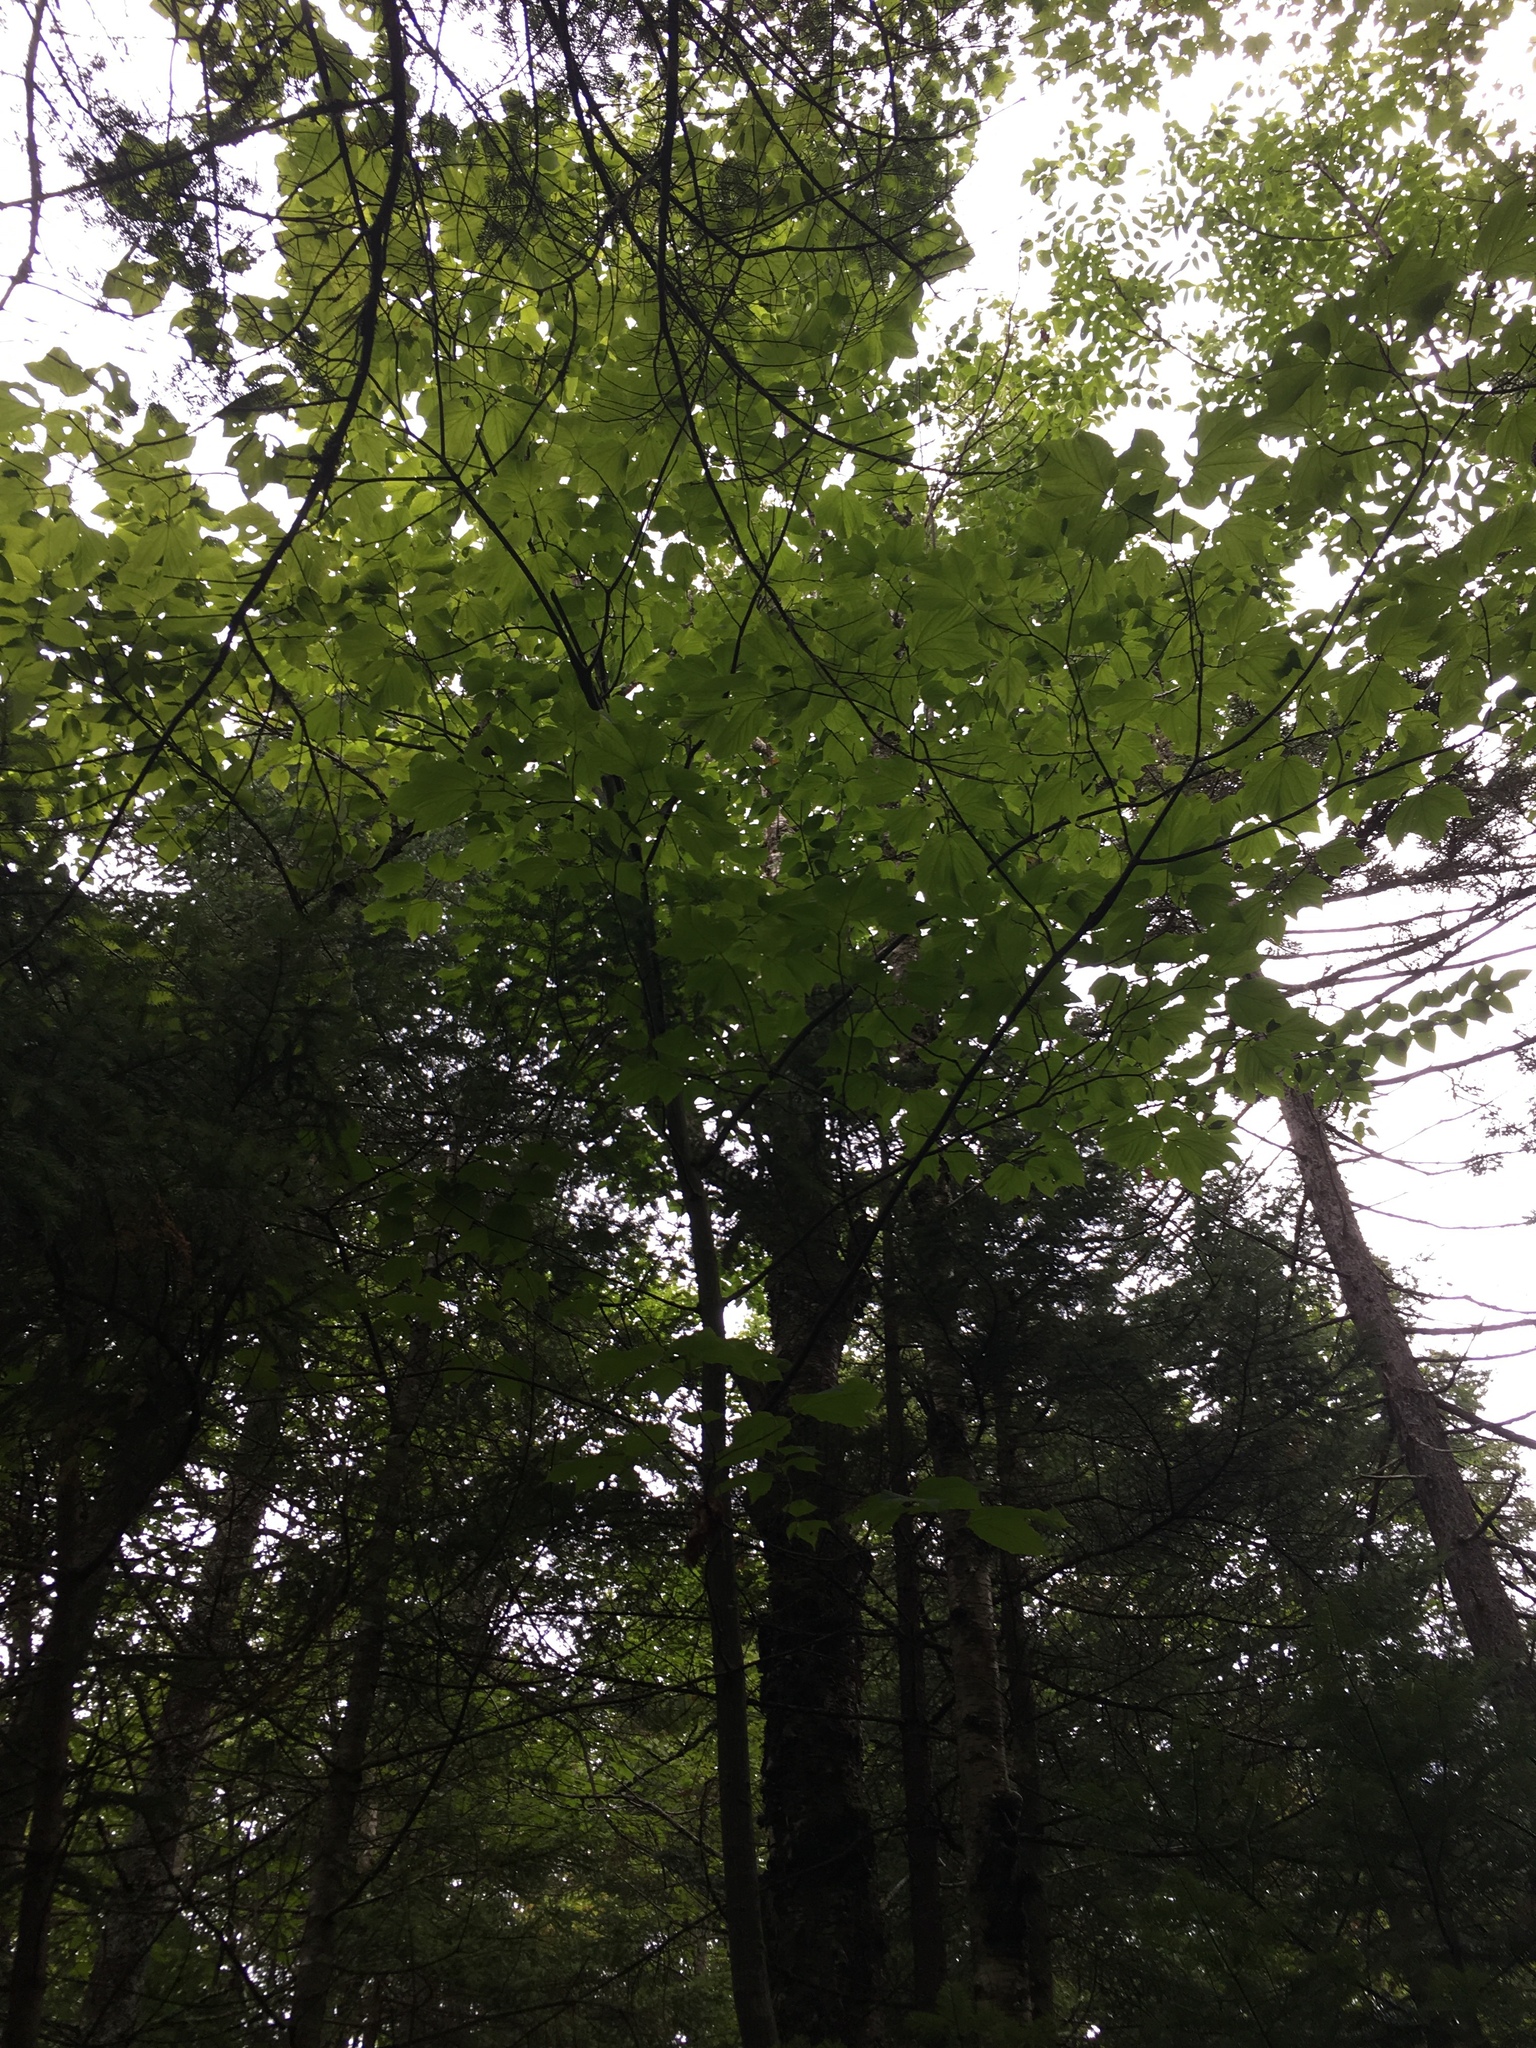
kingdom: Plantae
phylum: Tracheophyta
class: Magnoliopsida
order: Sapindales
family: Sapindaceae
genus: Acer
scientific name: Acer pensylvanicum
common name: Moosewood
